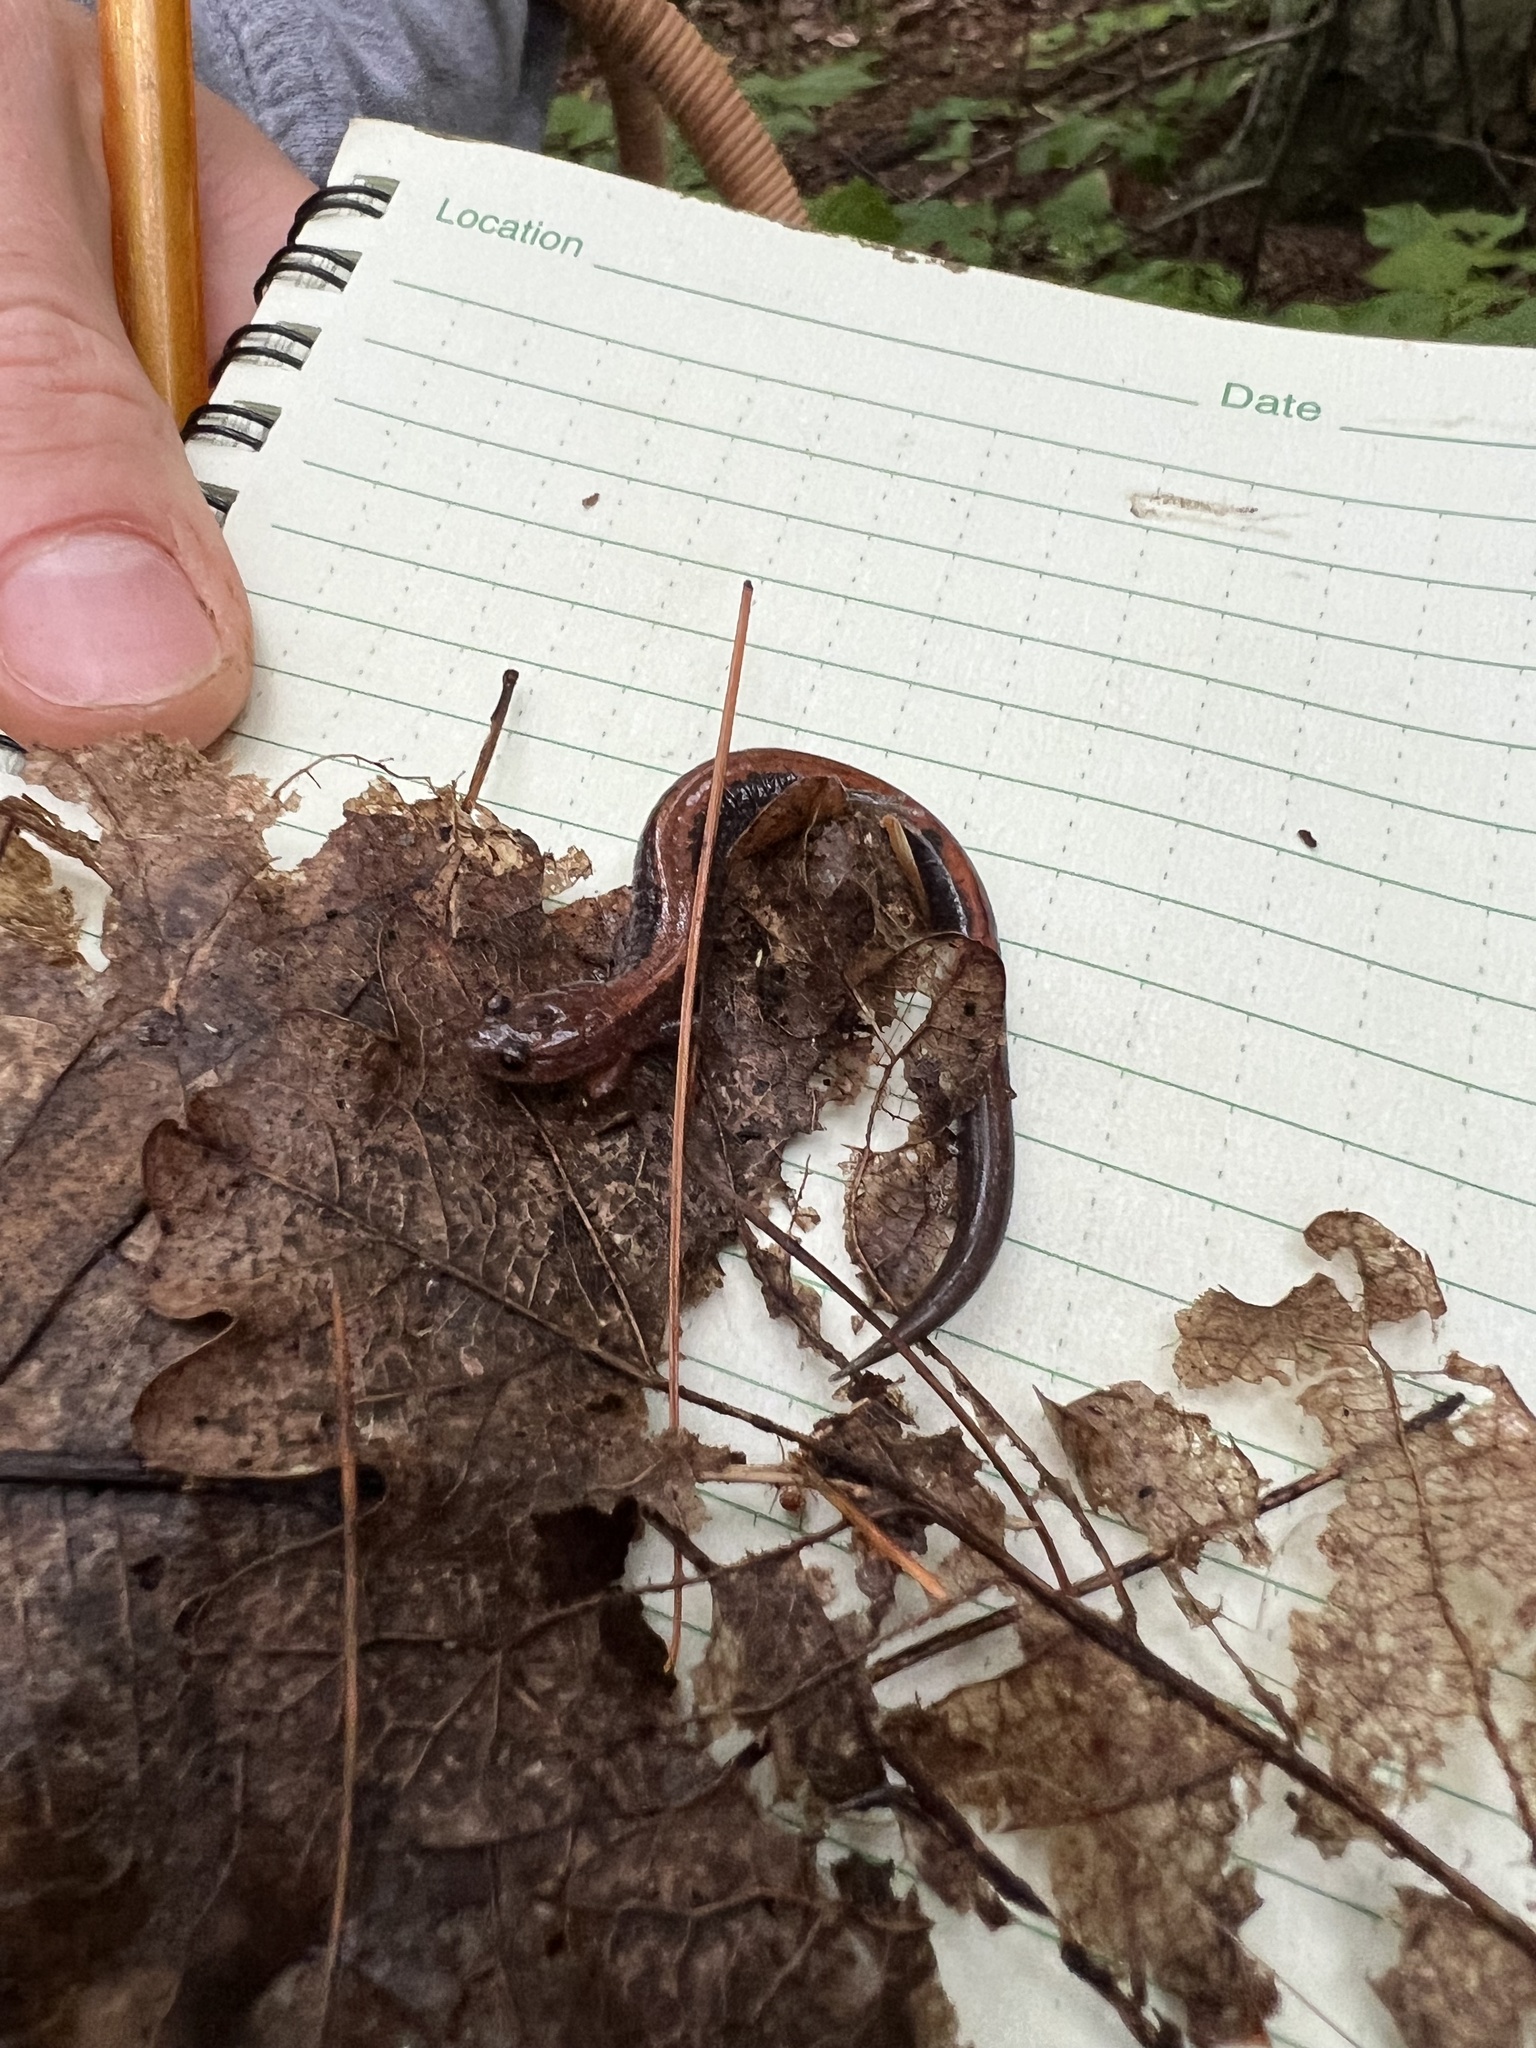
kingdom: Animalia
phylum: Chordata
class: Amphibia
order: Caudata
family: Plethodontidae
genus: Plethodon
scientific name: Plethodon cinereus
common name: Redback salamander
